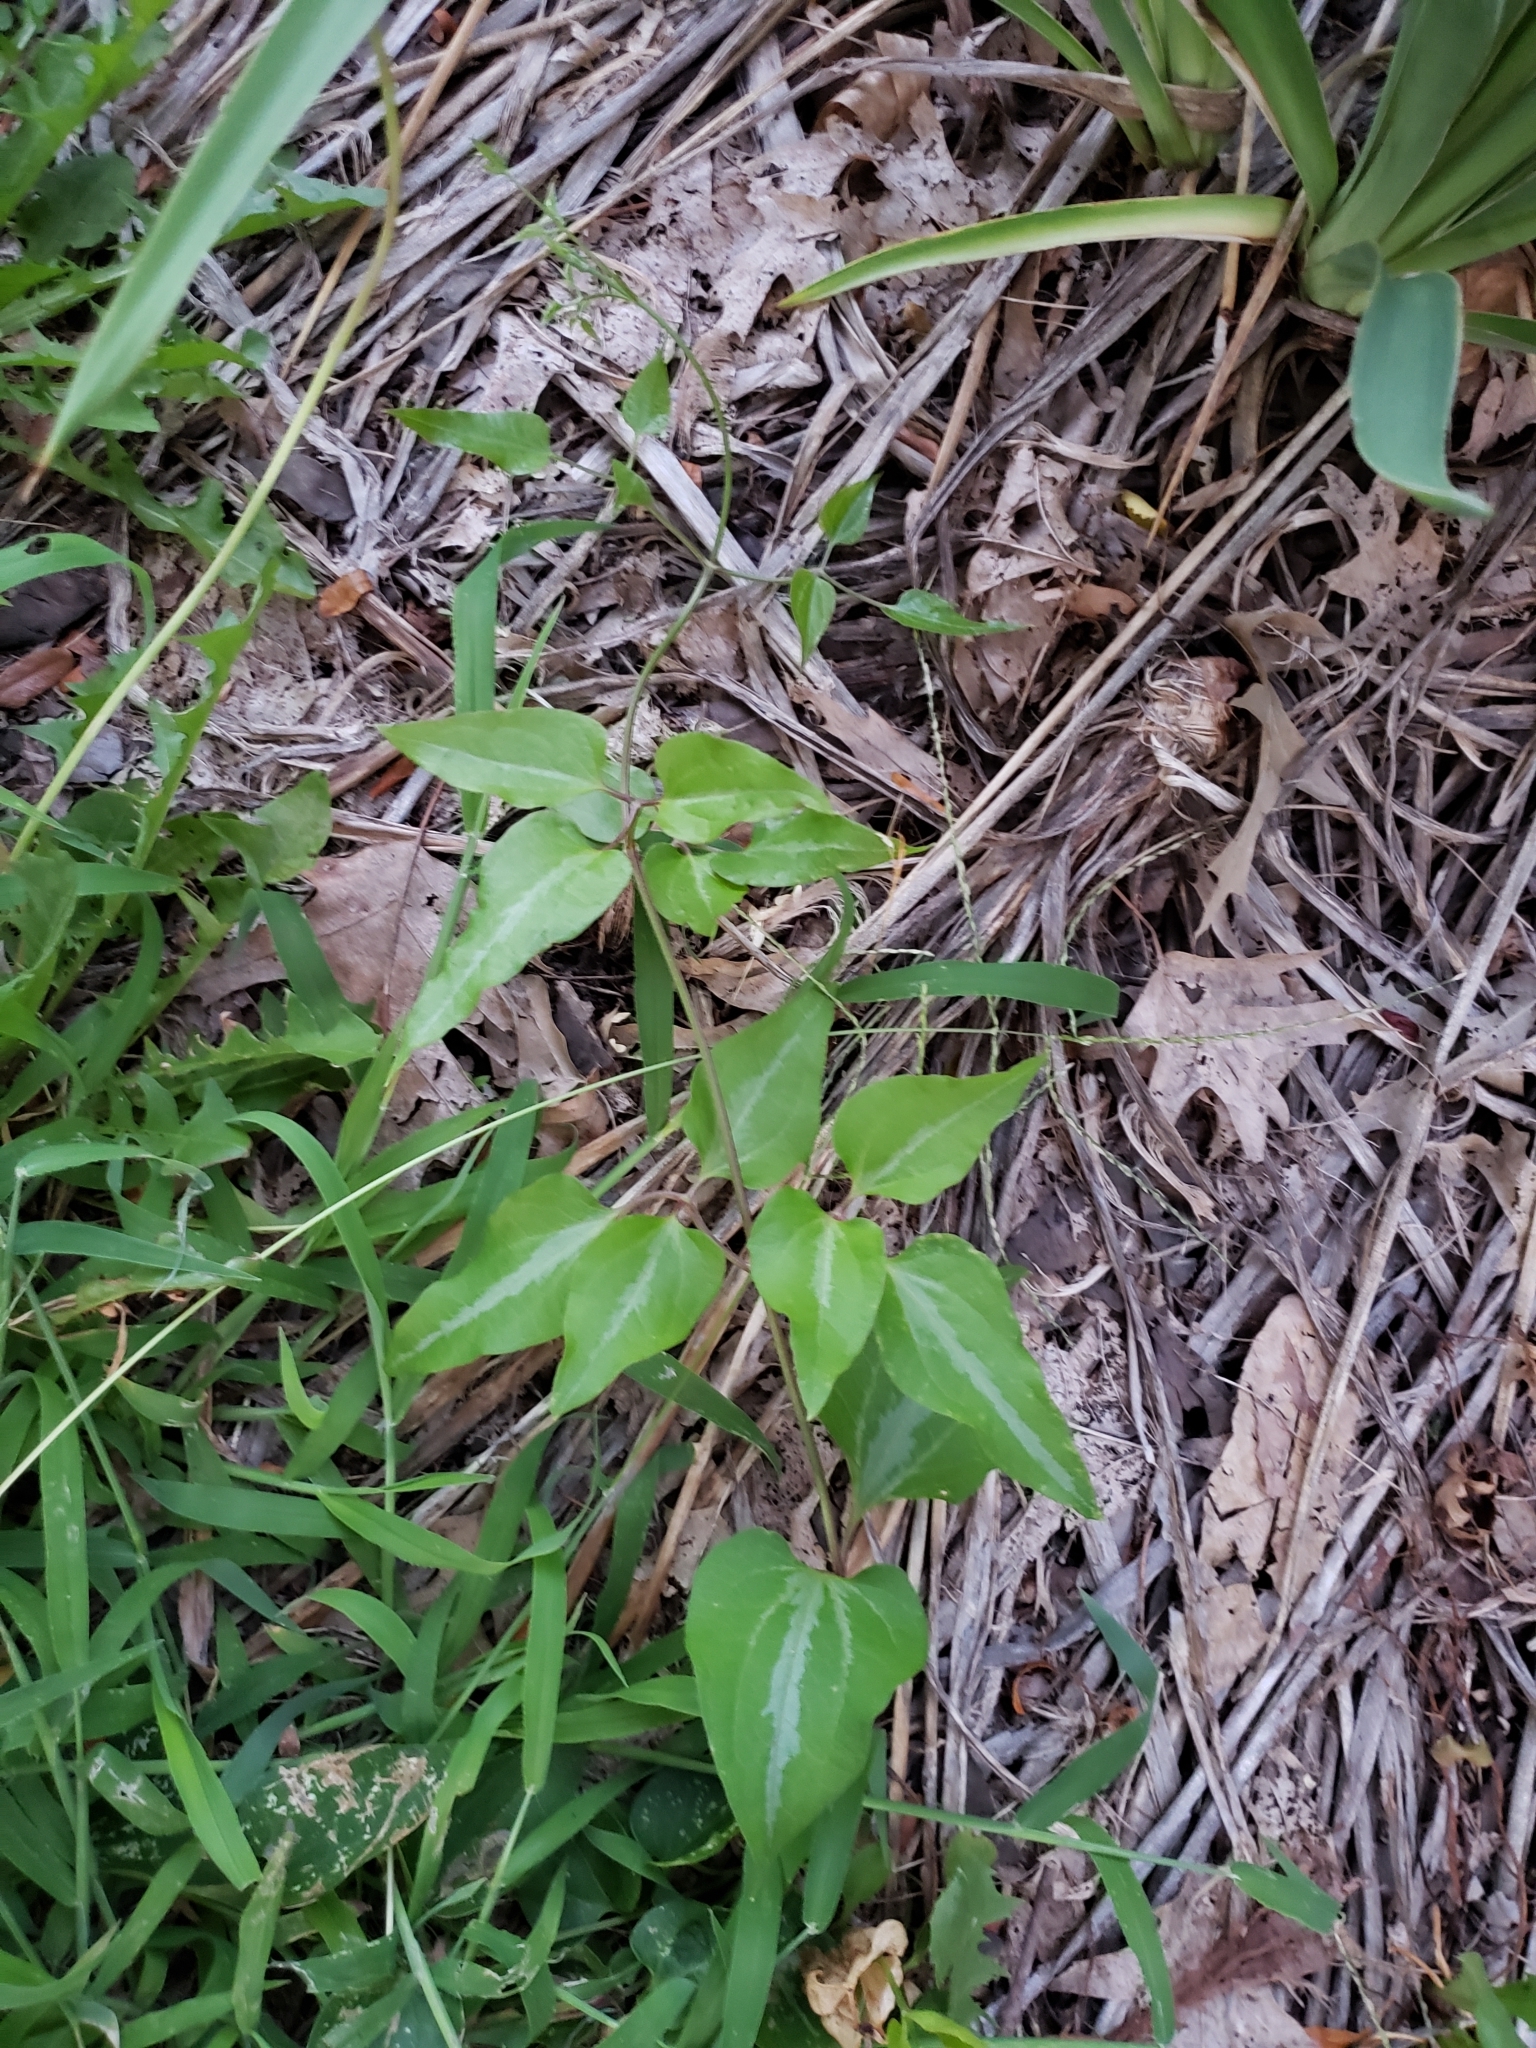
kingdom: Plantae
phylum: Tracheophyta
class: Magnoliopsida
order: Ranunculales
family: Ranunculaceae
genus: Clematis
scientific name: Clematis terniflora
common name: Sweet autumn clematis
